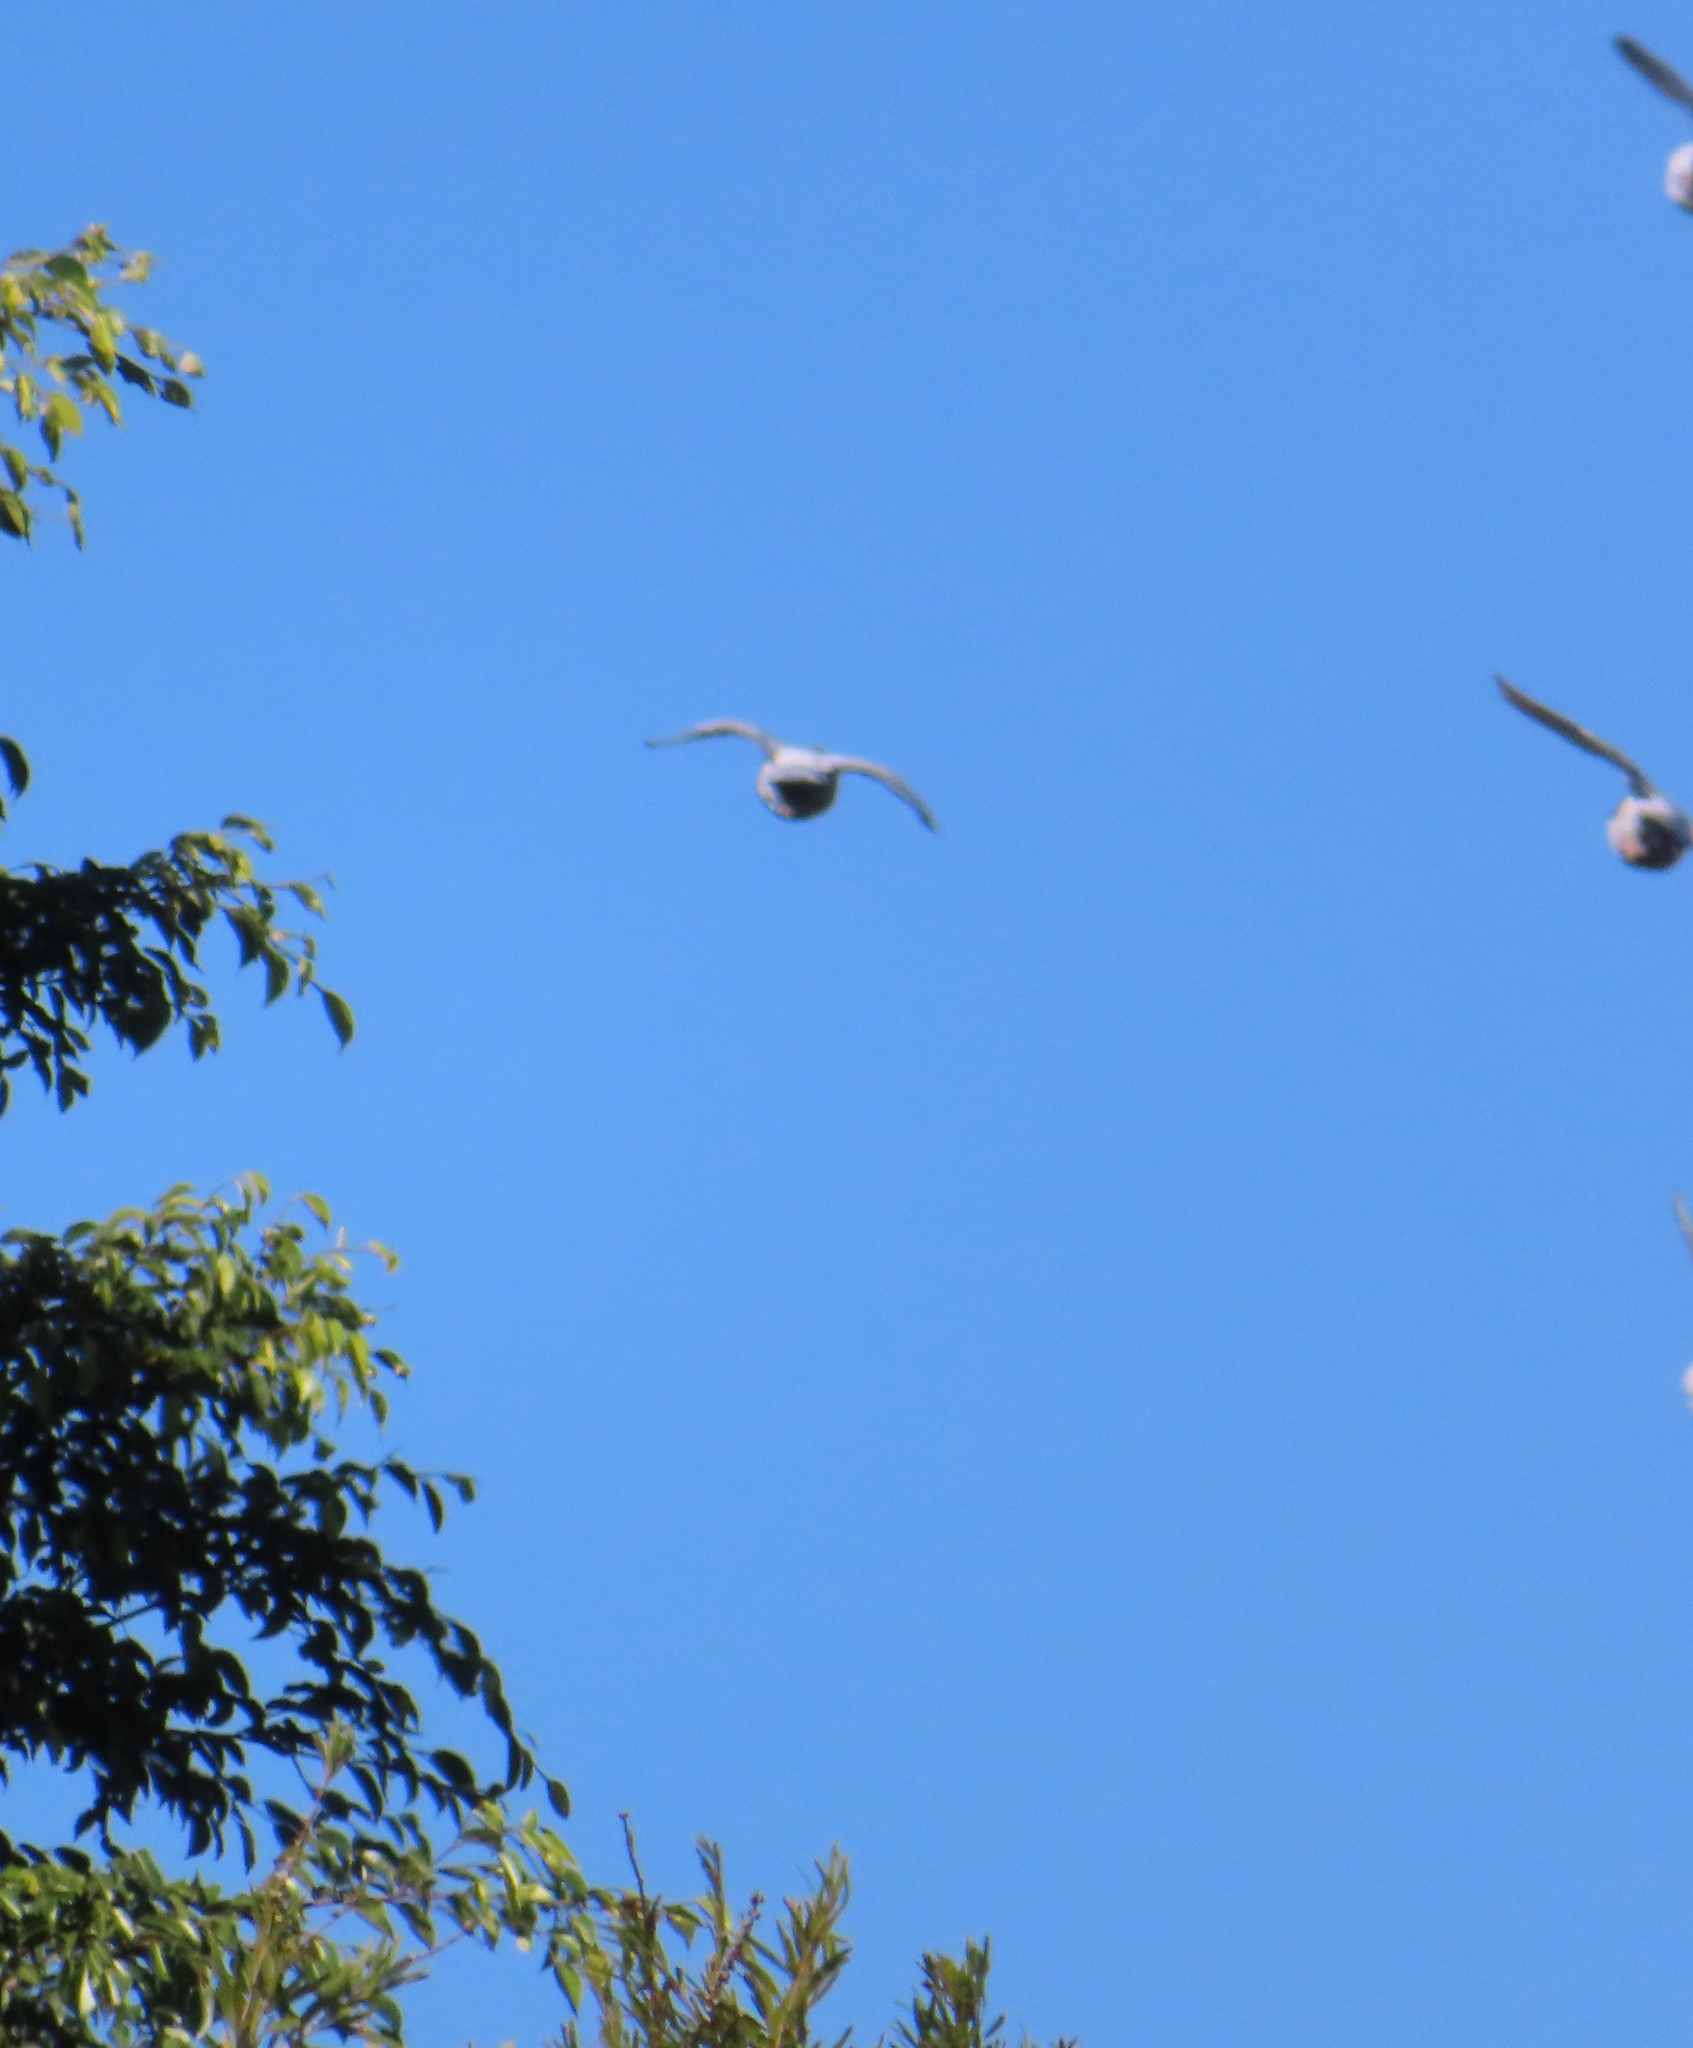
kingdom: Animalia
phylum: Chordata
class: Aves
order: Columbiformes
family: Columbidae
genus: Columba
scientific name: Columba livia
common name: Rock pigeon
